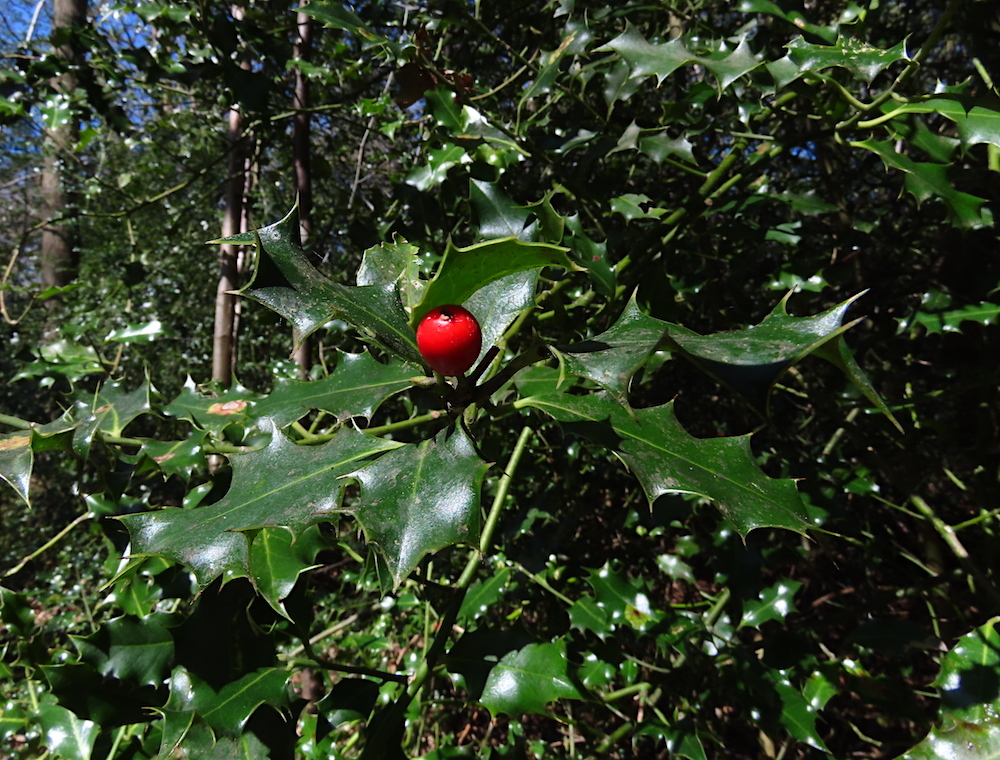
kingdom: Plantae
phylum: Tracheophyta
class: Magnoliopsida
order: Aquifoliales
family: Aquifoliaceae
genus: Ilex
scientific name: Ilex aquifolium
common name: English holly
